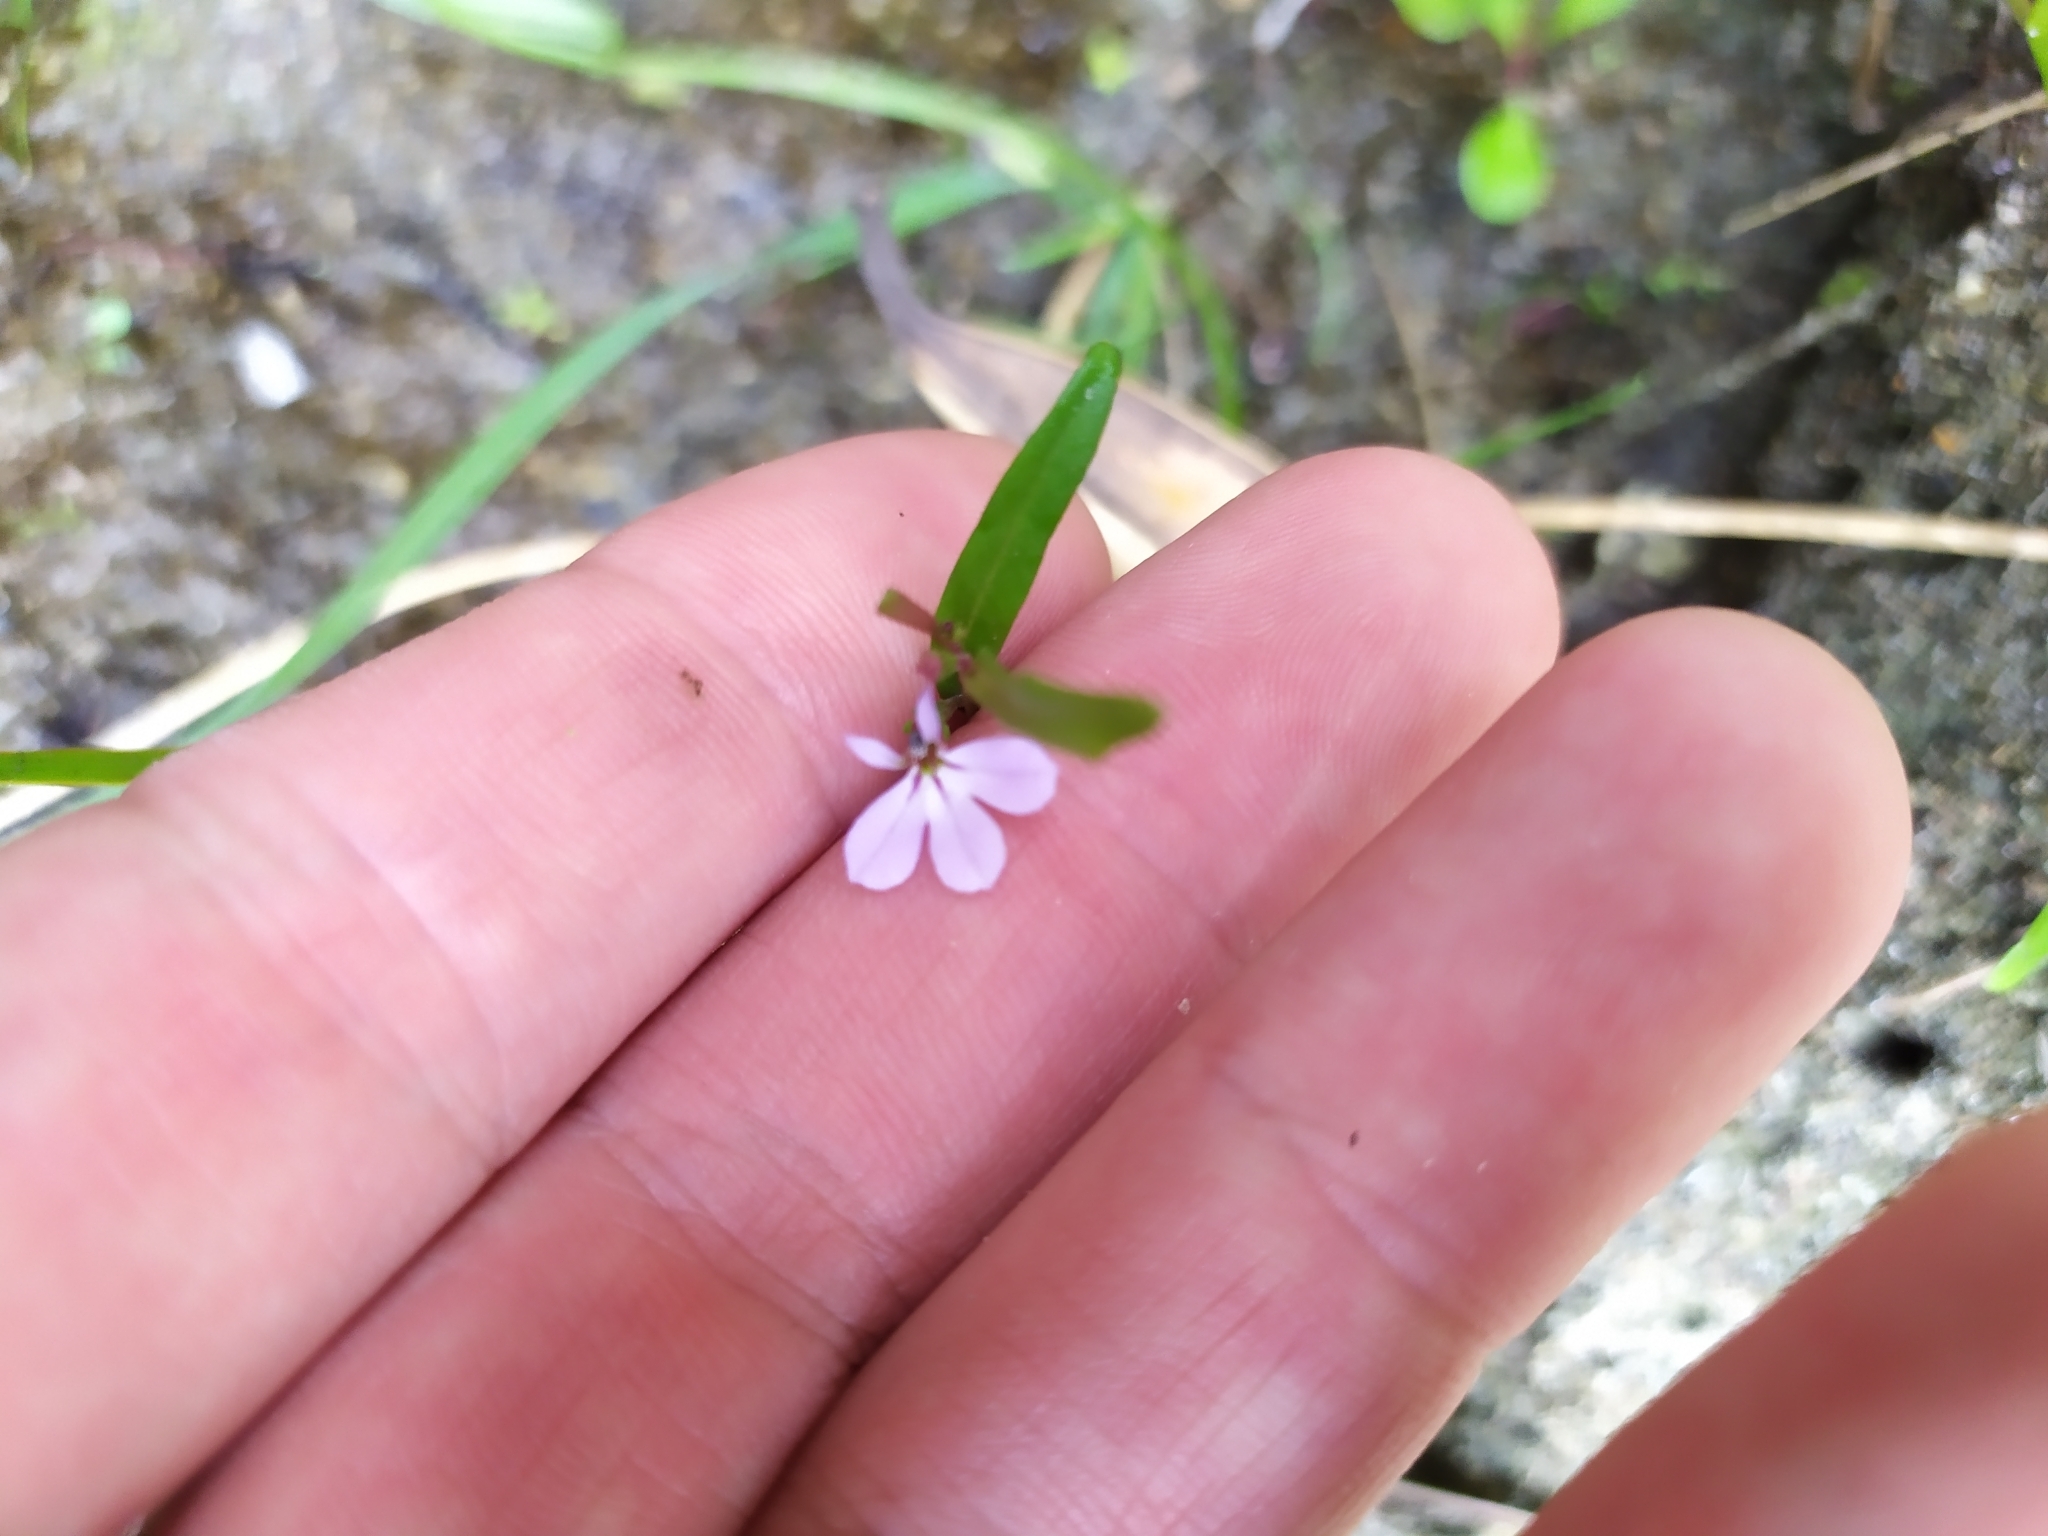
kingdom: Plantae
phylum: Tracheophyta
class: Magnoliopsida
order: Asterales
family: Campanulaceae
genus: Lobelia
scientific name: Lobelia anceps
